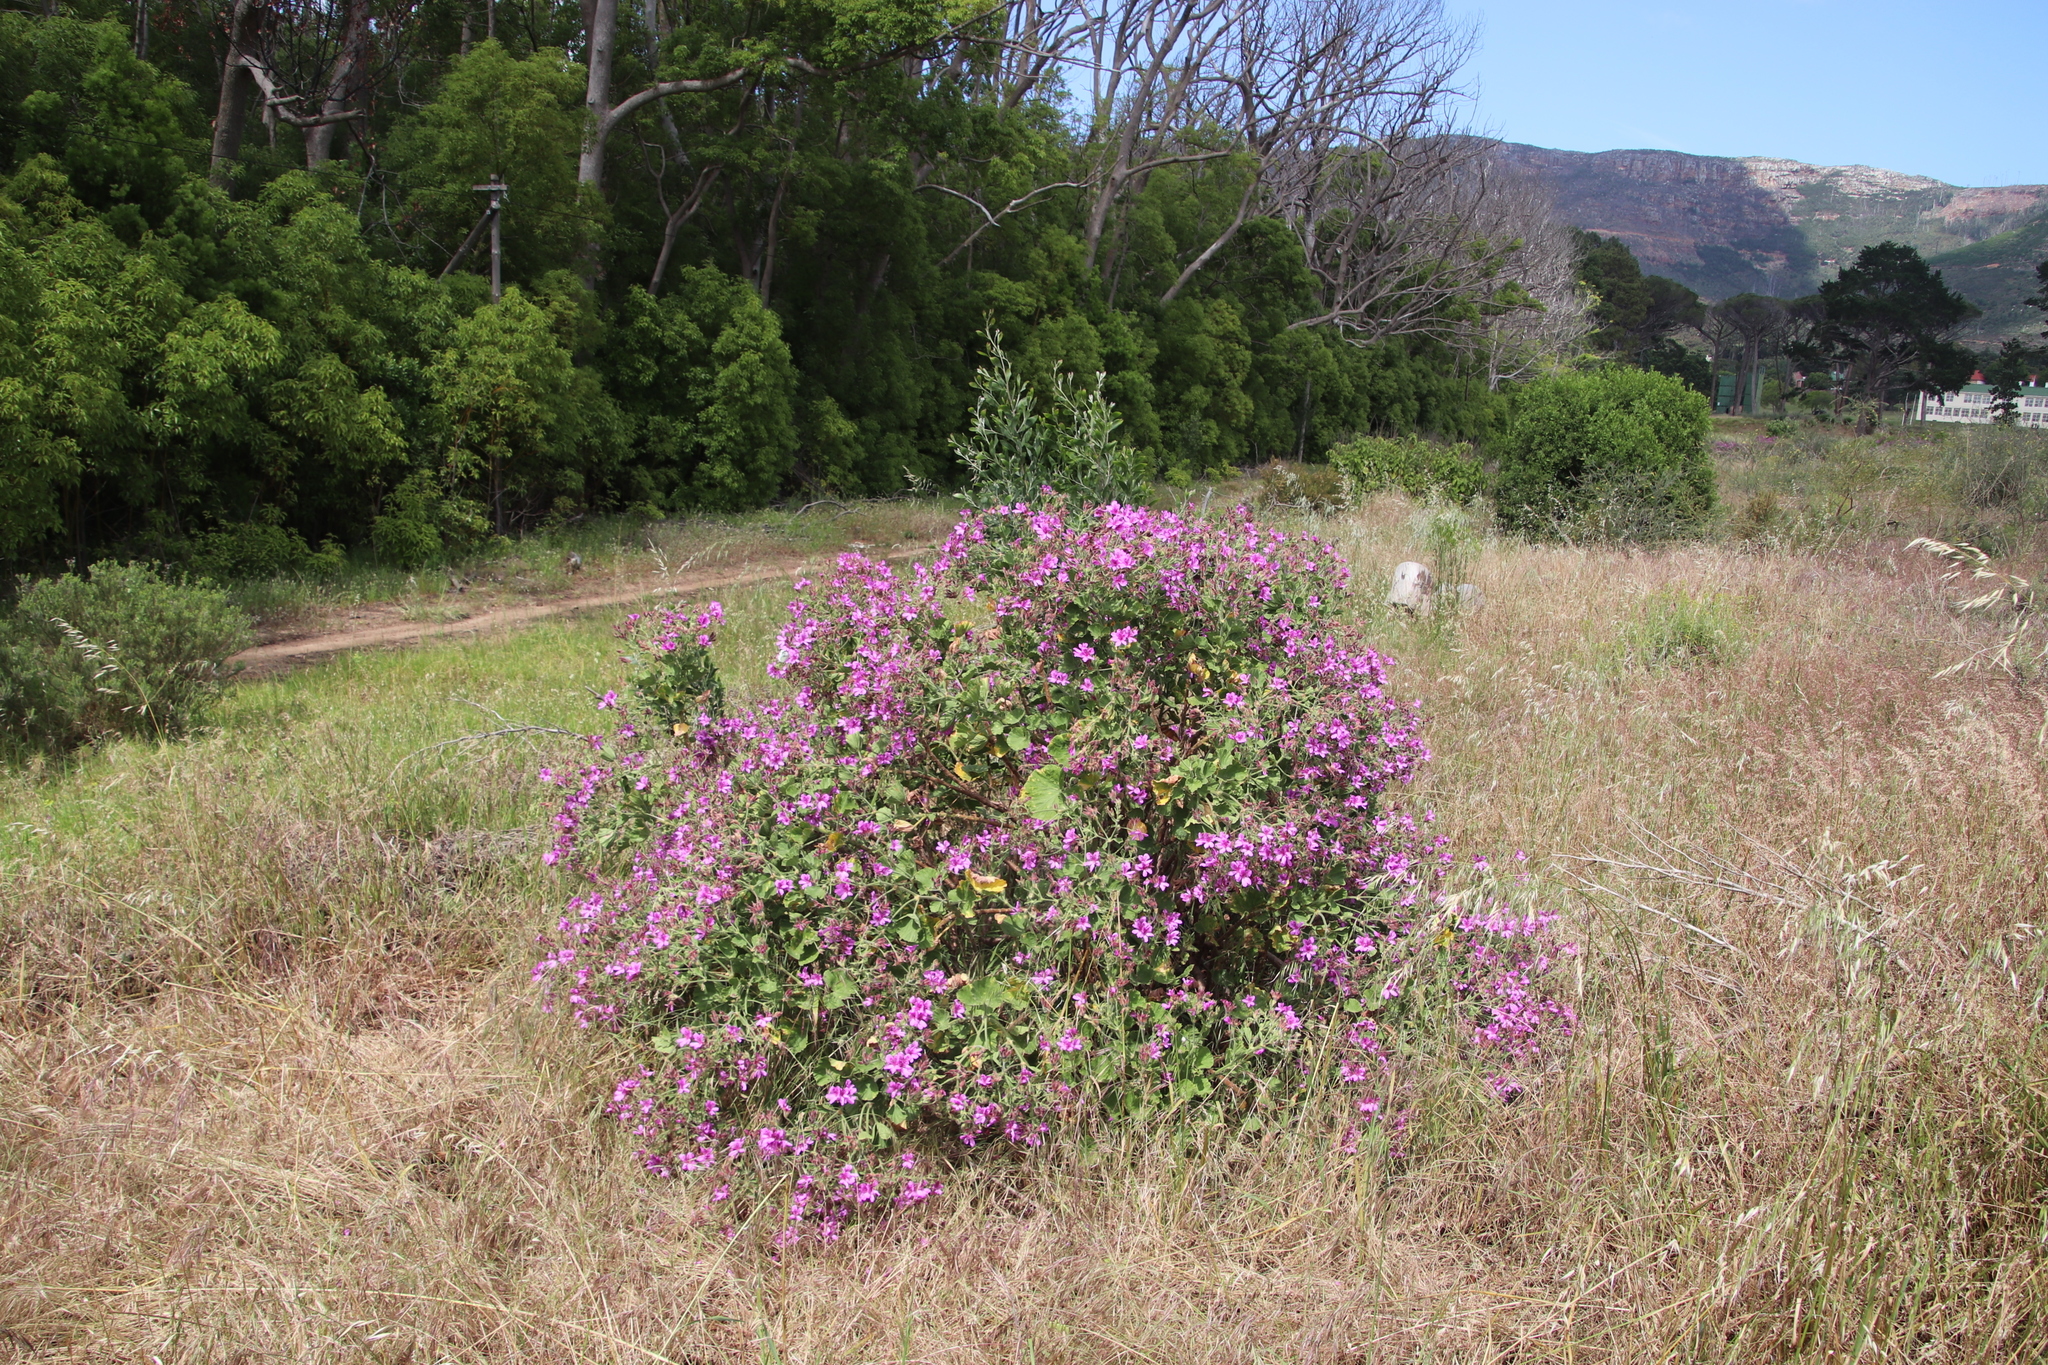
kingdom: Plantae
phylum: Tracheophyta
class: Magnoliopsida
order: Geraniales
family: Geraniaceae
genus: Pelargonium
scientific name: Pelargonium cucullatum
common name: Tree pelargonium
